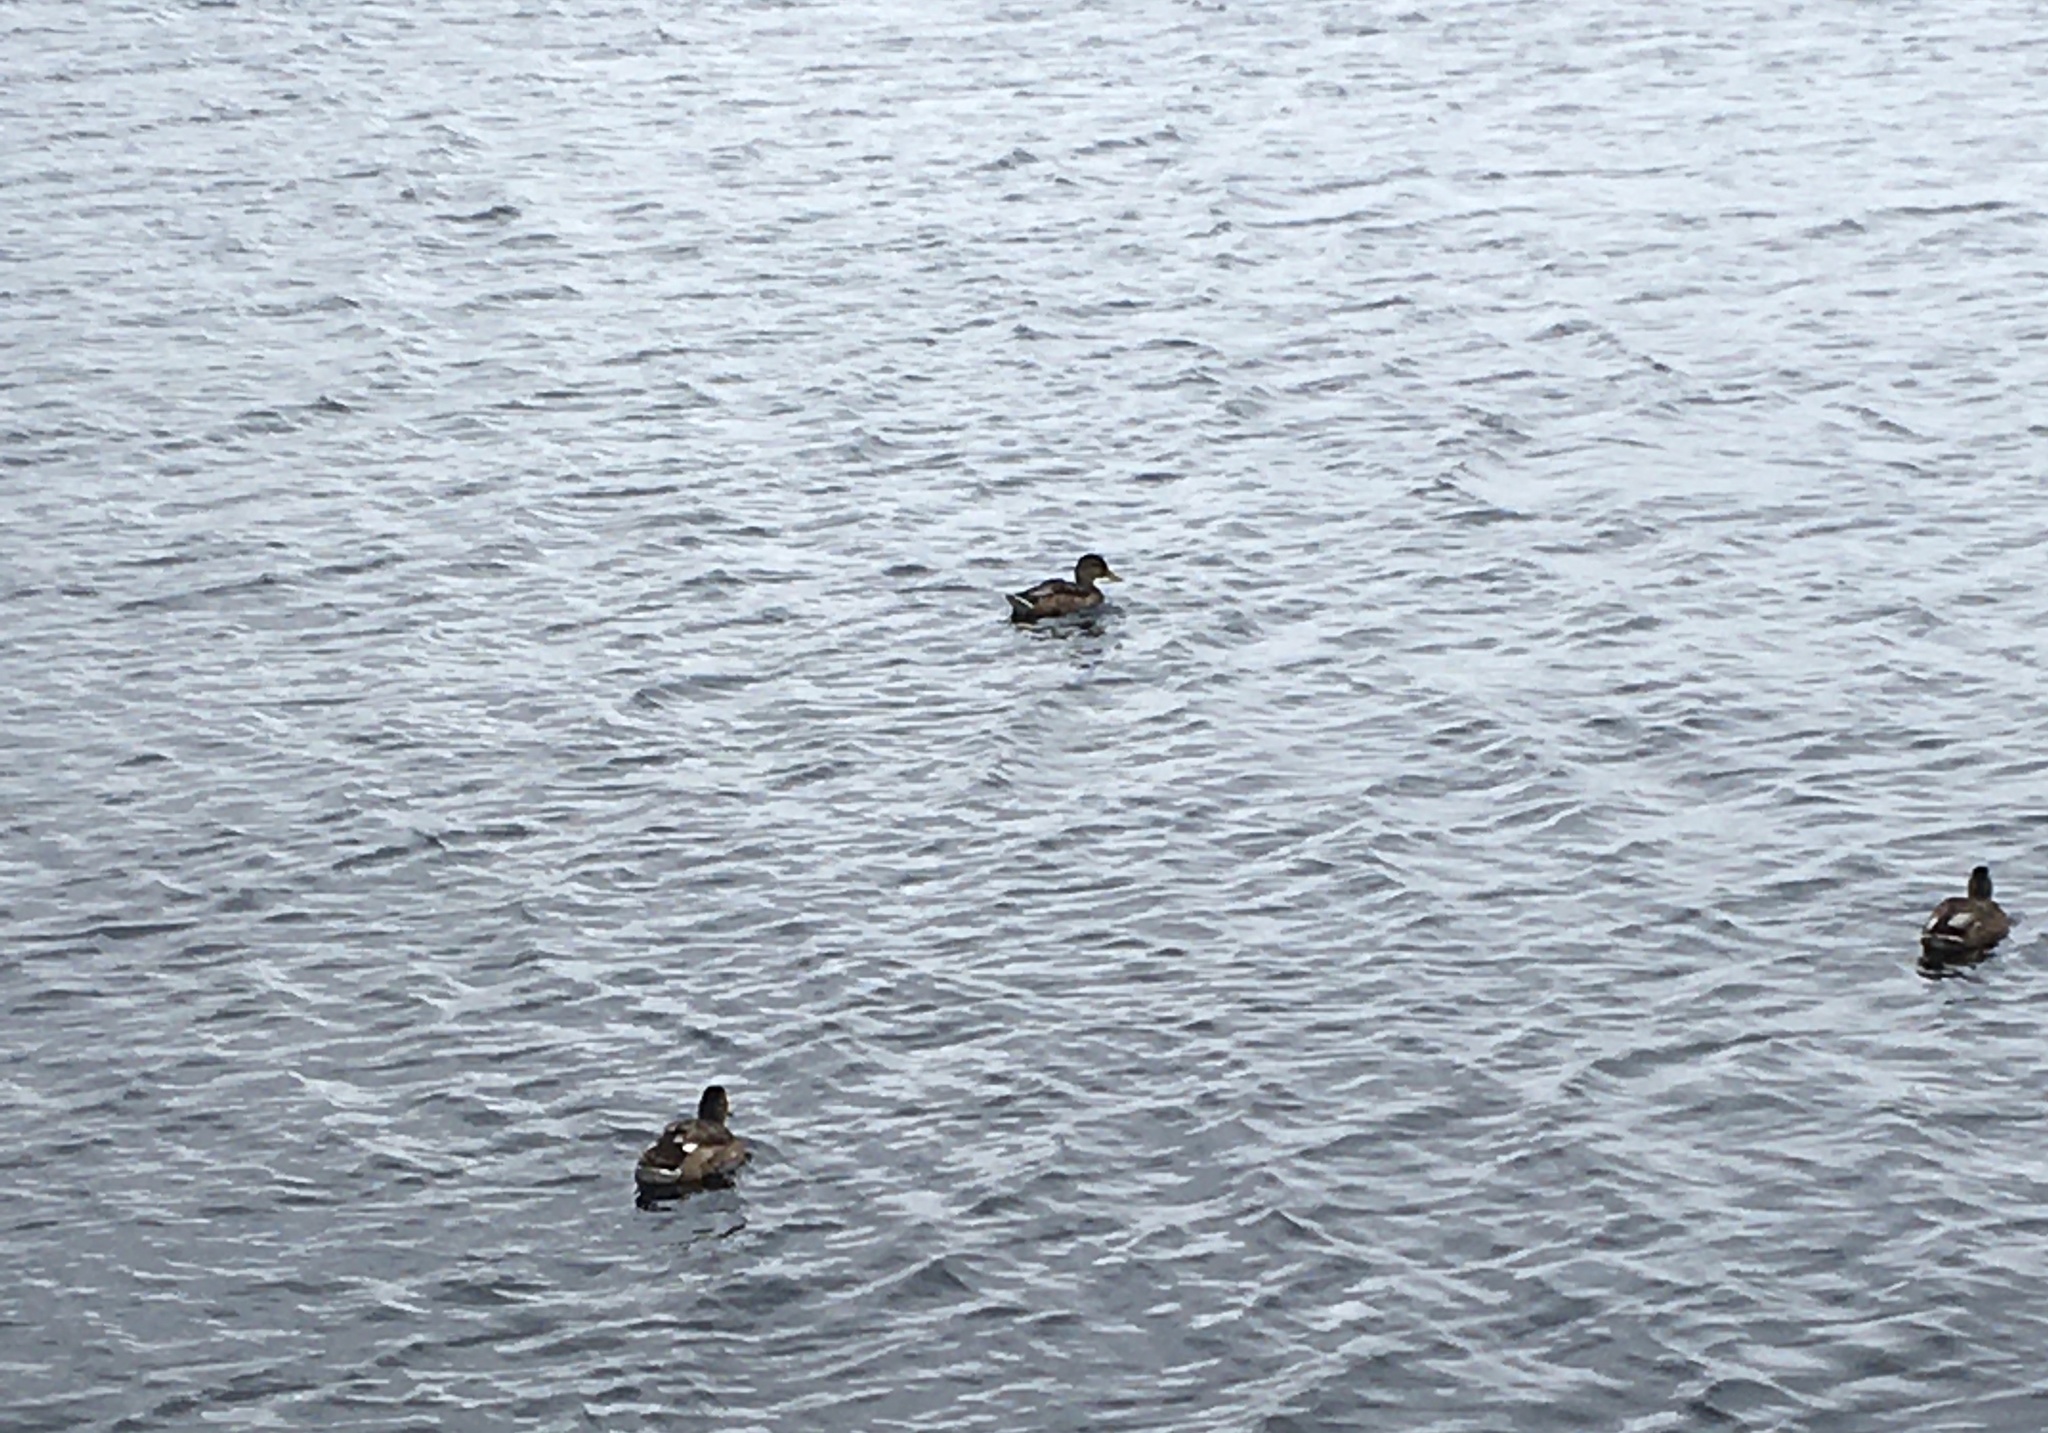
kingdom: Animalia
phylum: Chordata
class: Aves
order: Anseriformes
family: Anatidae
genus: Anas
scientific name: Anas platyrhynchos
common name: Mallard
